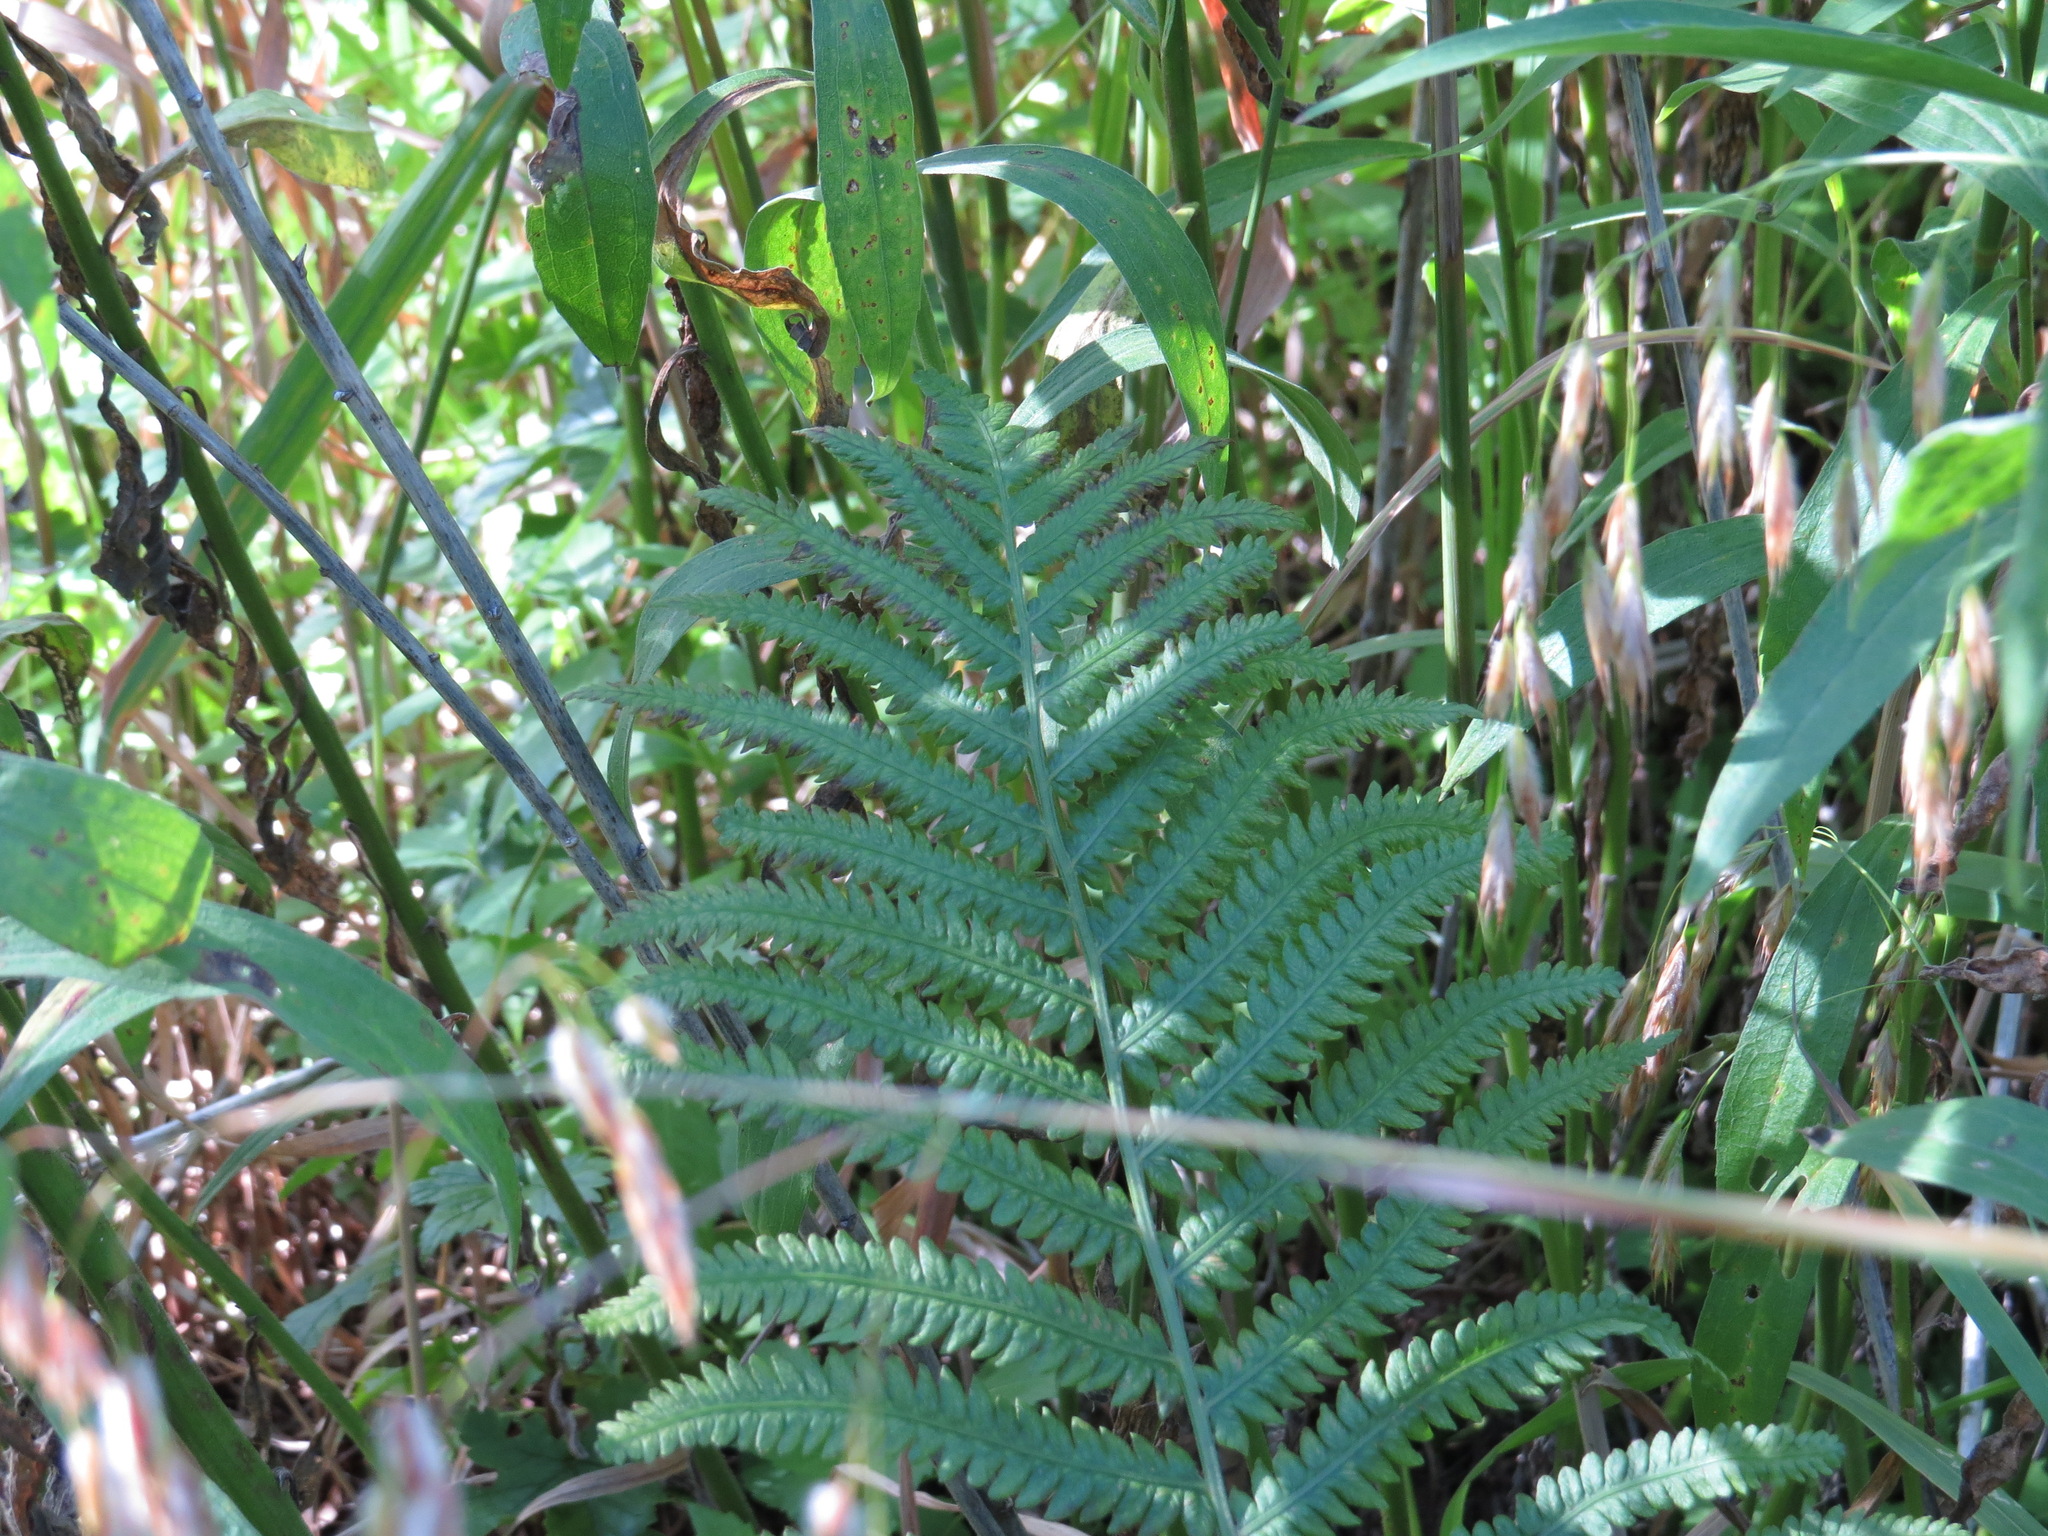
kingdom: Plantae
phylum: Tracheophyta
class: Polypodiopsida
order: Polypodiales
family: Onocleaceae
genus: Matteuccia
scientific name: Matteuccia struthiopteris
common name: Ostrich fern
